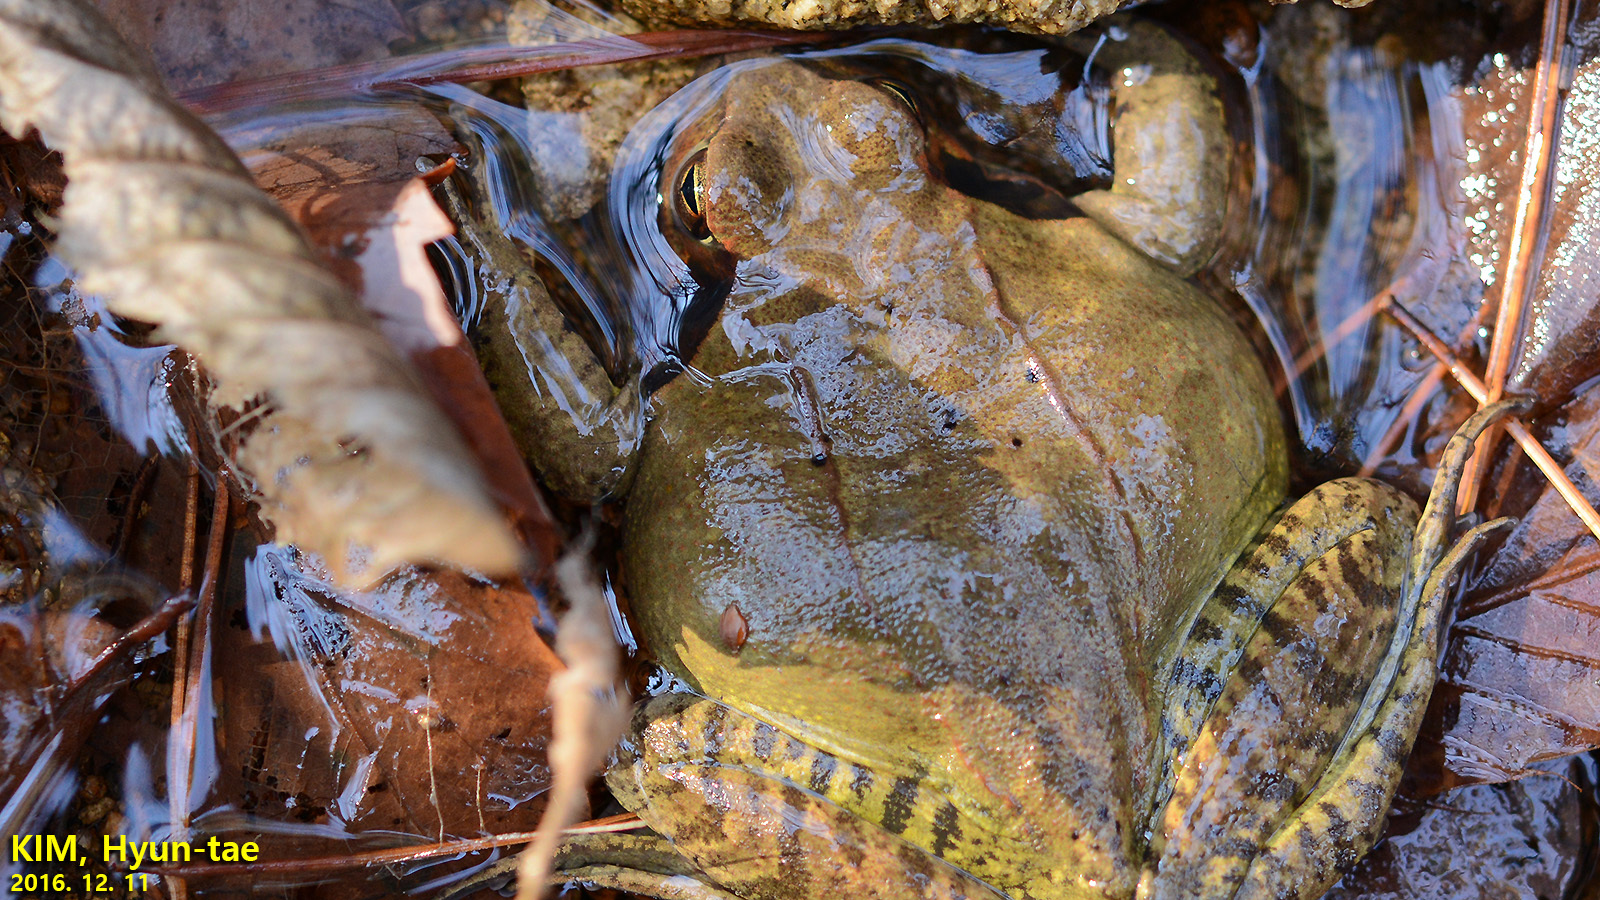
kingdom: Animalia
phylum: Chordata
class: Amphibia
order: Anura
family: Ranidae
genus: Rana
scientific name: Rana uenoi
